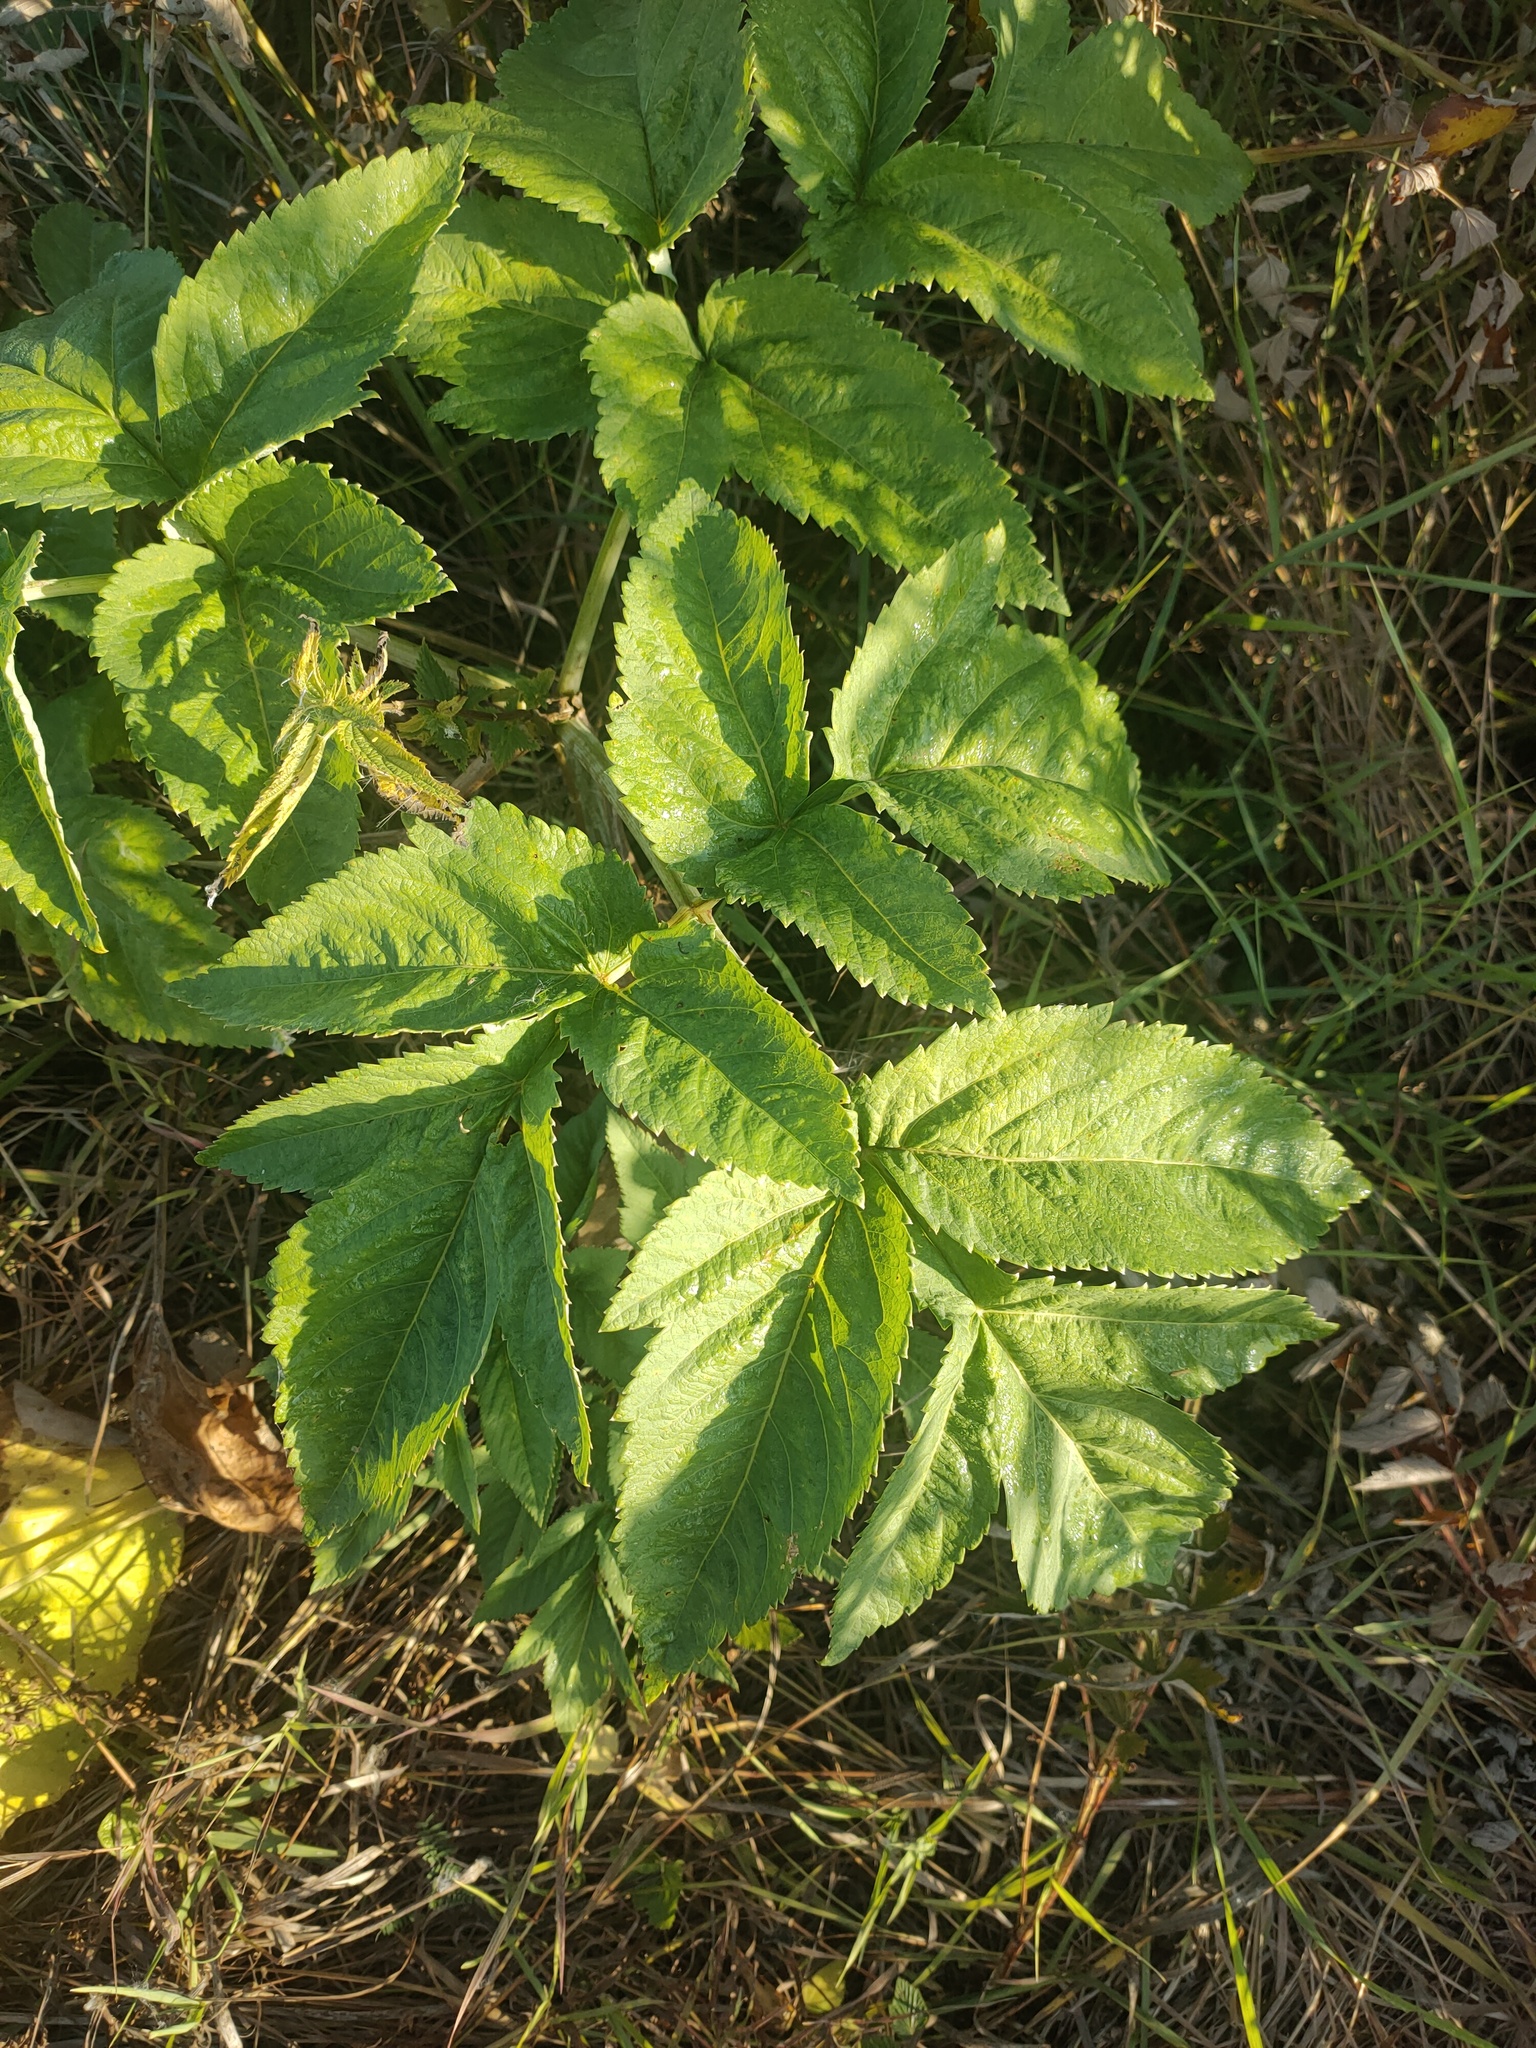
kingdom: Plantae
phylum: Tracheophyta
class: Magnoliopsida
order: Apiales
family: Apiaceae
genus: Angelica
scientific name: Angelica decurrens
